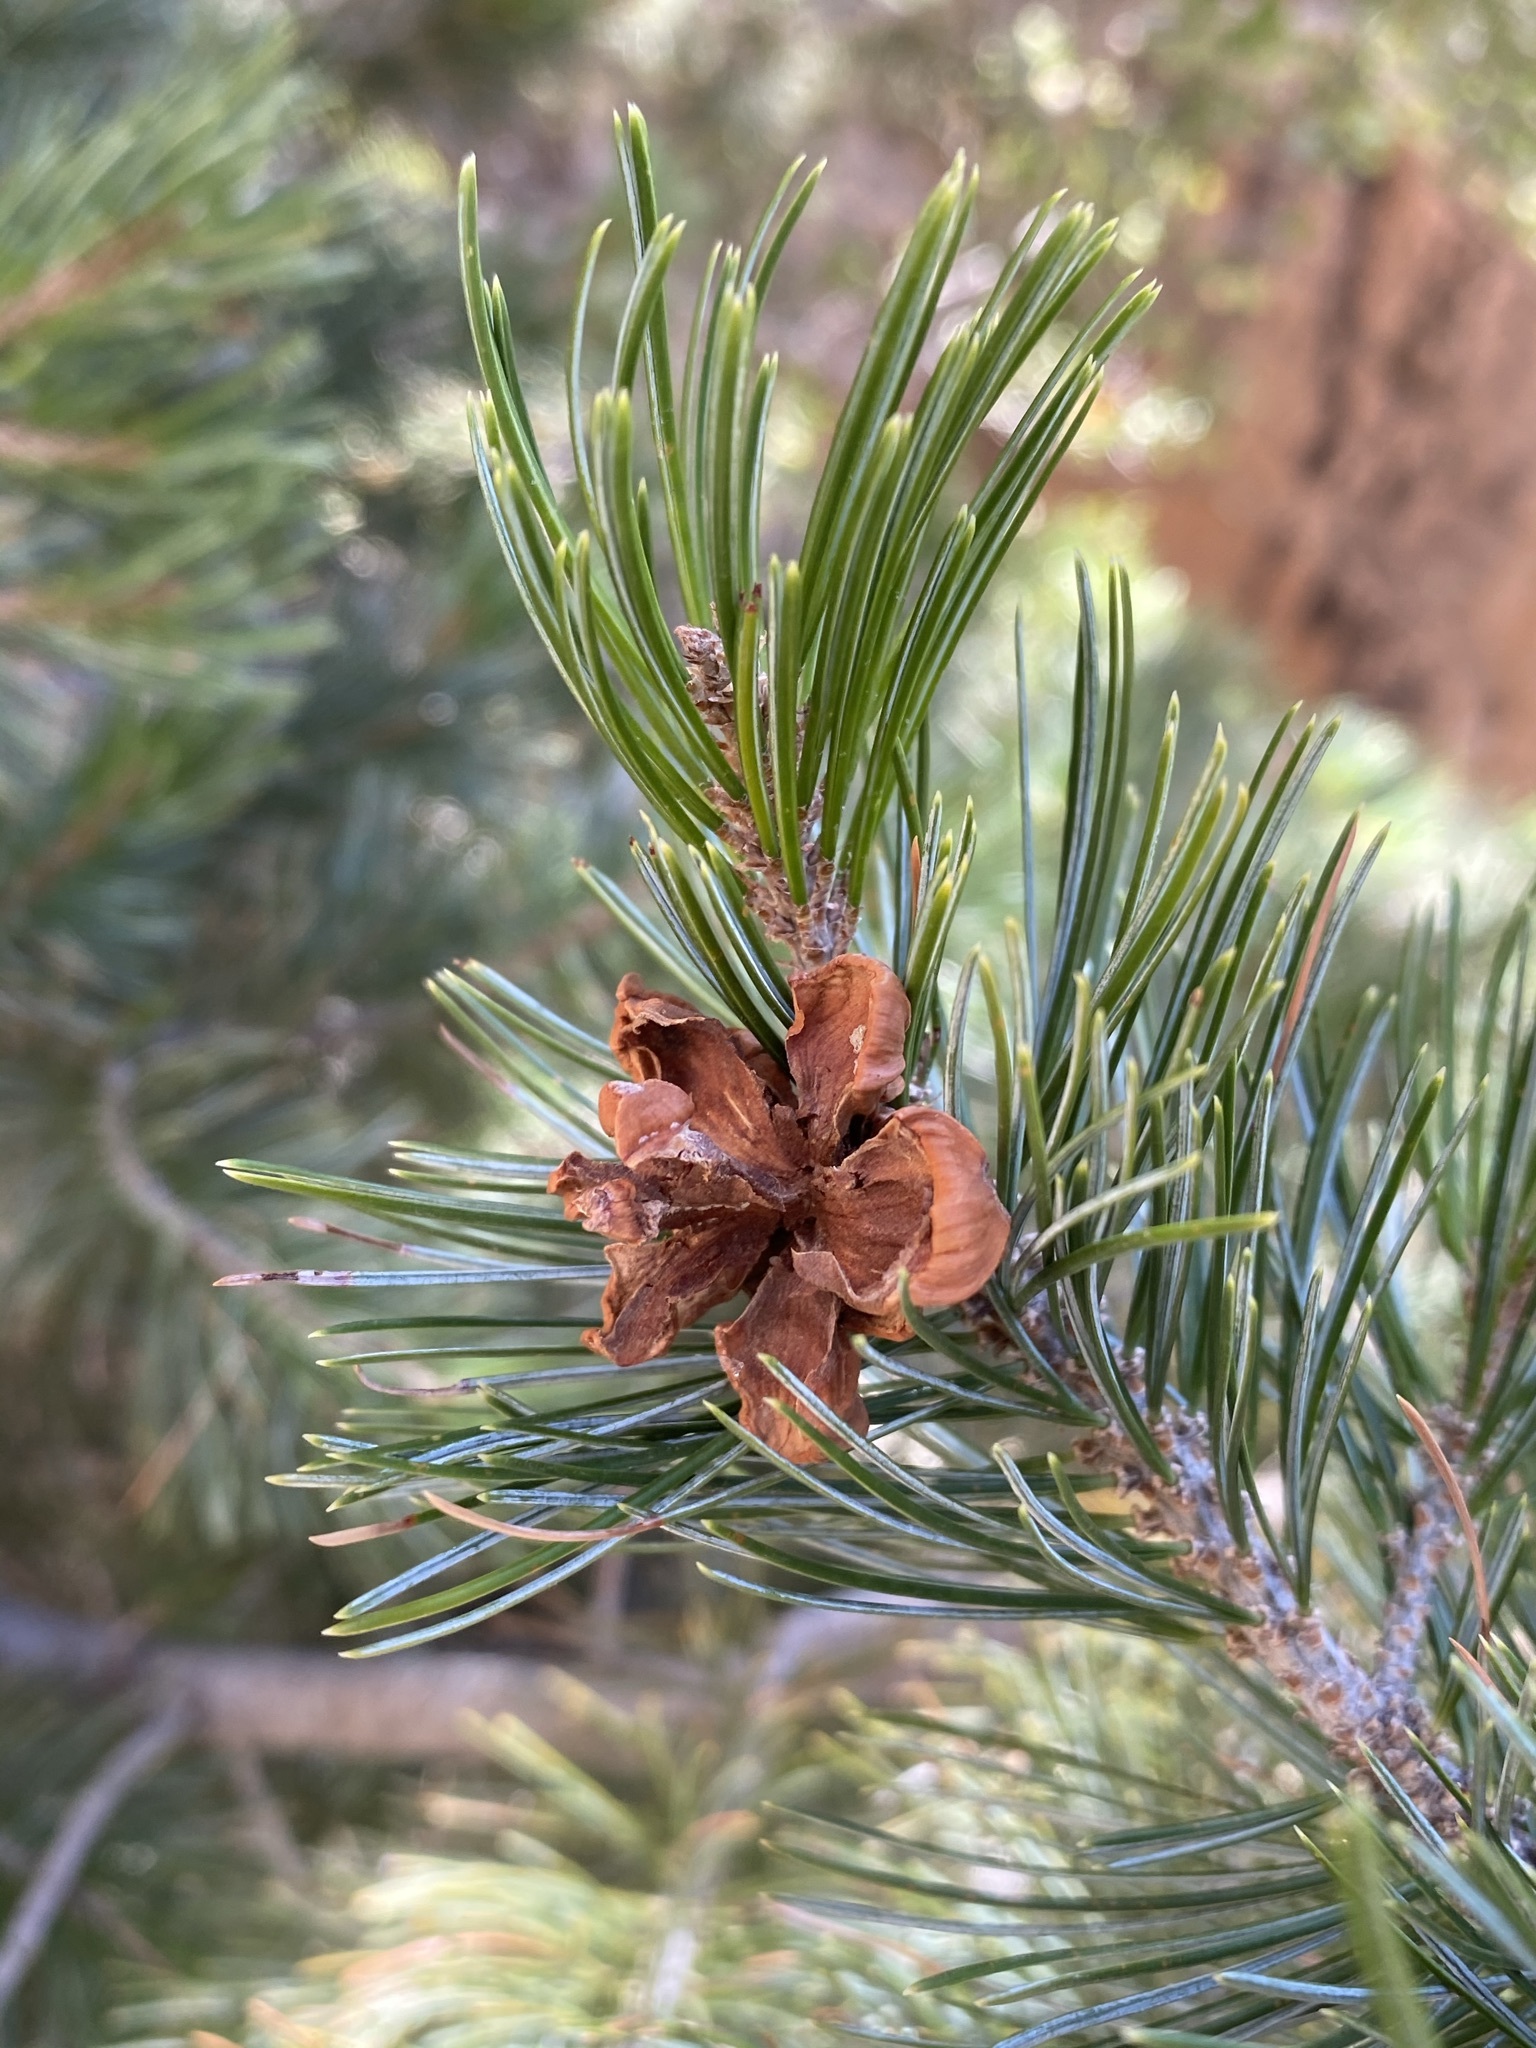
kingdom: Plantae
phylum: Tracheophyta
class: Pinopsida
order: Pinales
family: Pinaceae
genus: Pinus
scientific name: Pinus cembroides
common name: Mexican nut pine
